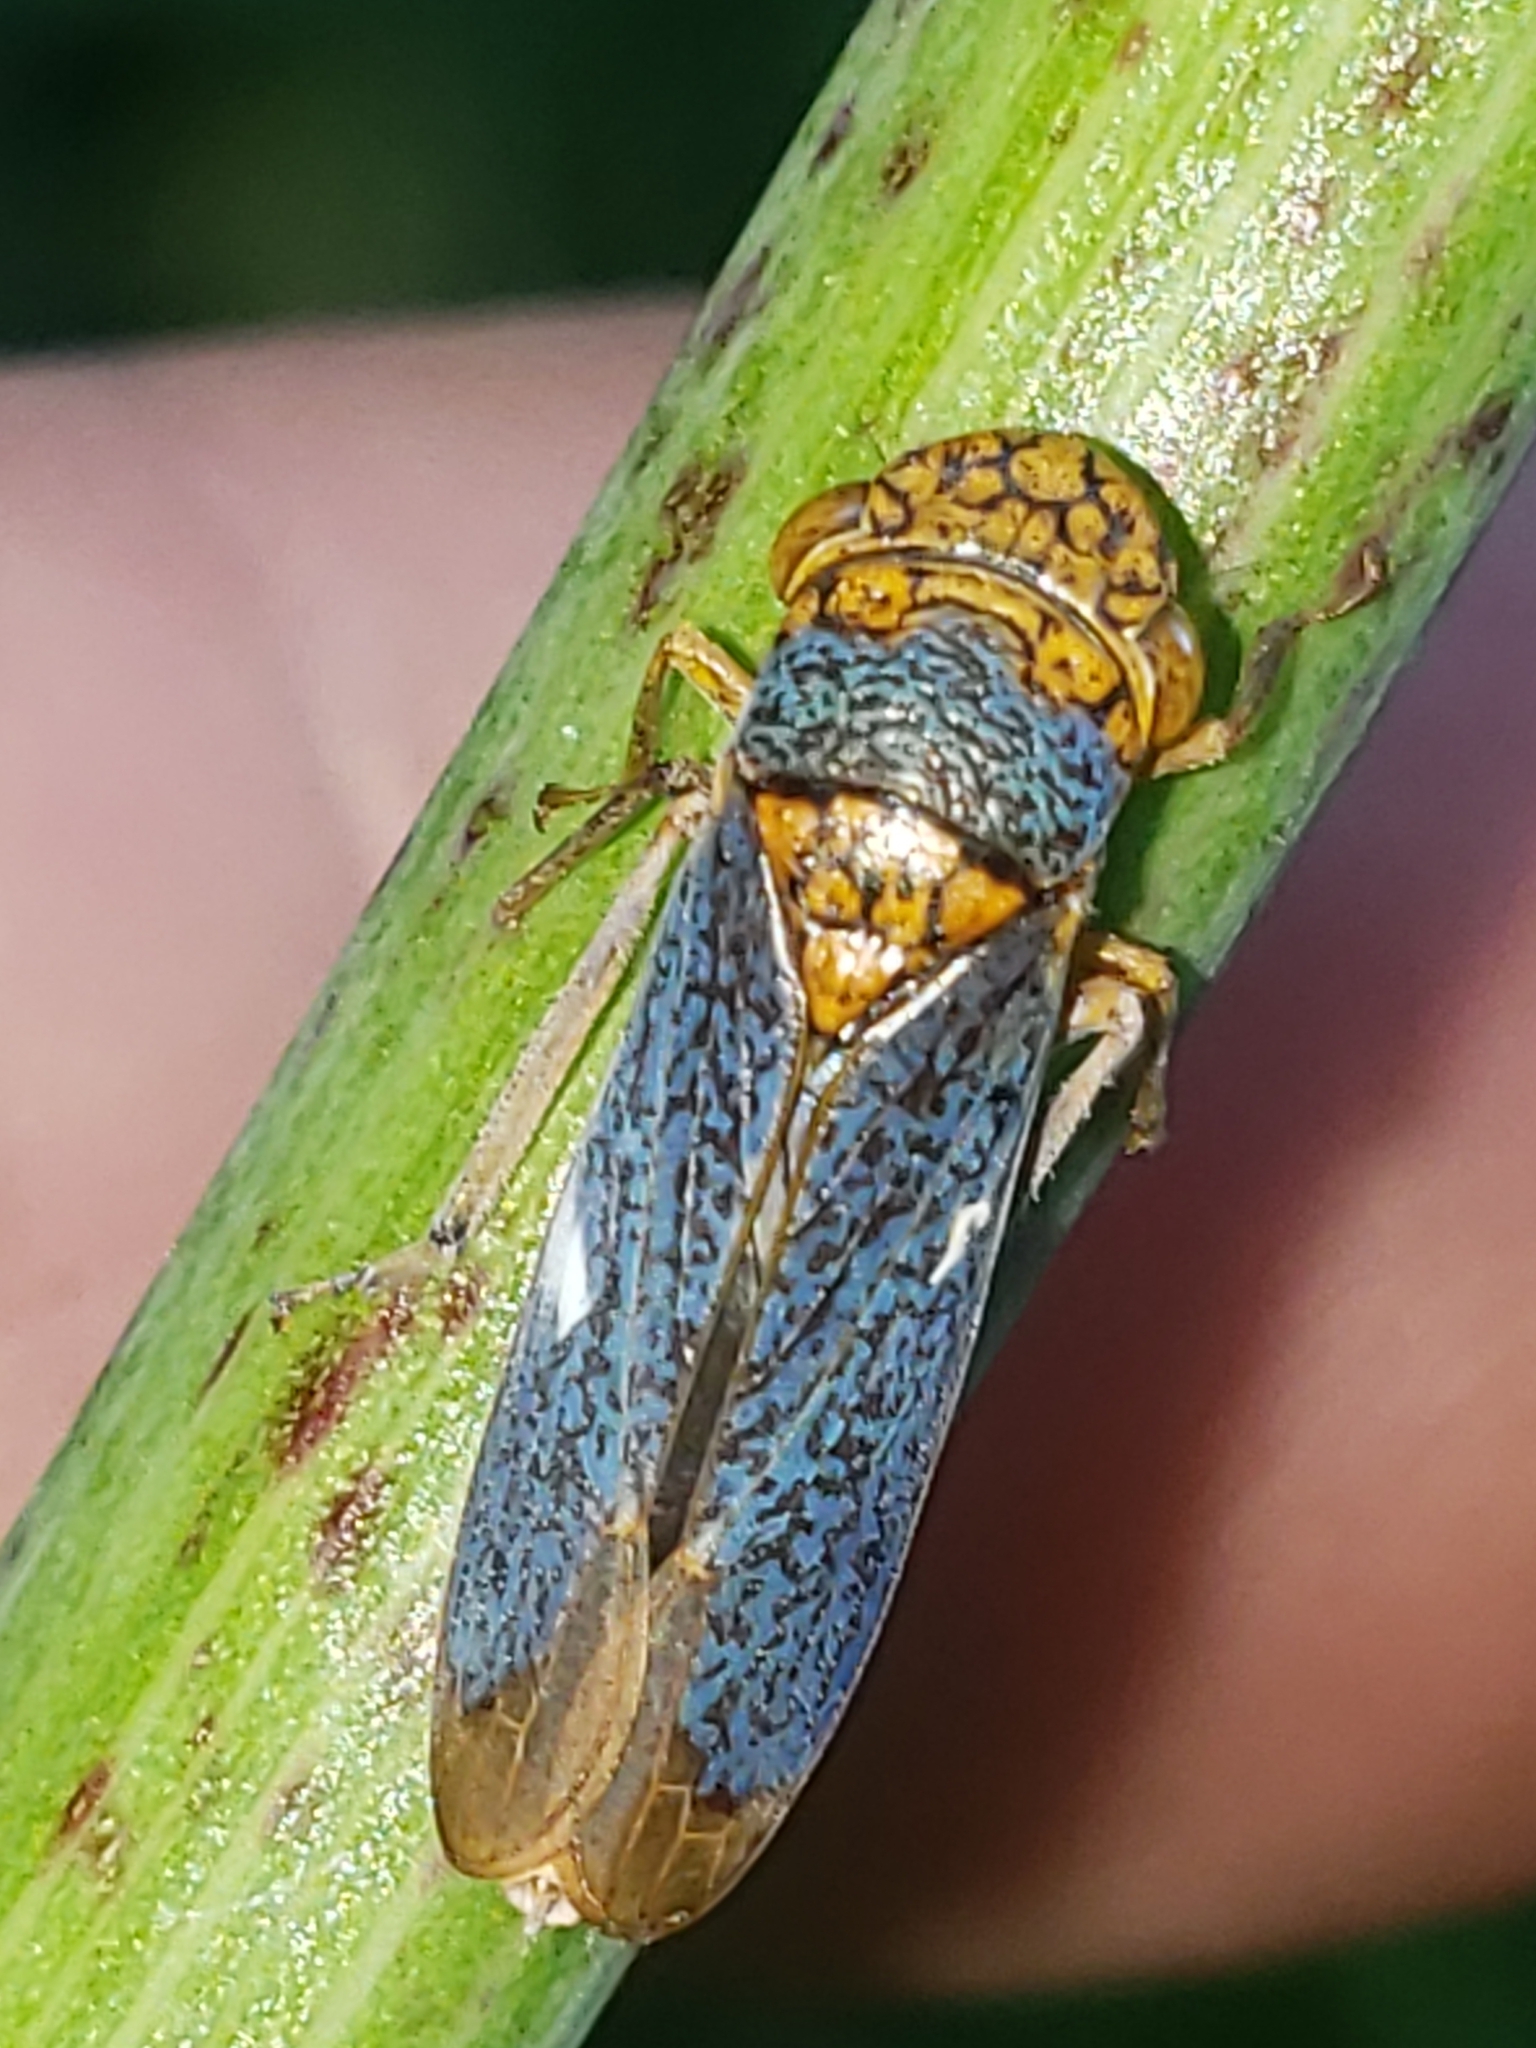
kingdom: Animalia
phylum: Arthropoda
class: Insecta
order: Hemiptera
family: Cicadellidae
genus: Oncometopia
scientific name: Oncometopia orbona
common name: Broad-headed sharpshooter
